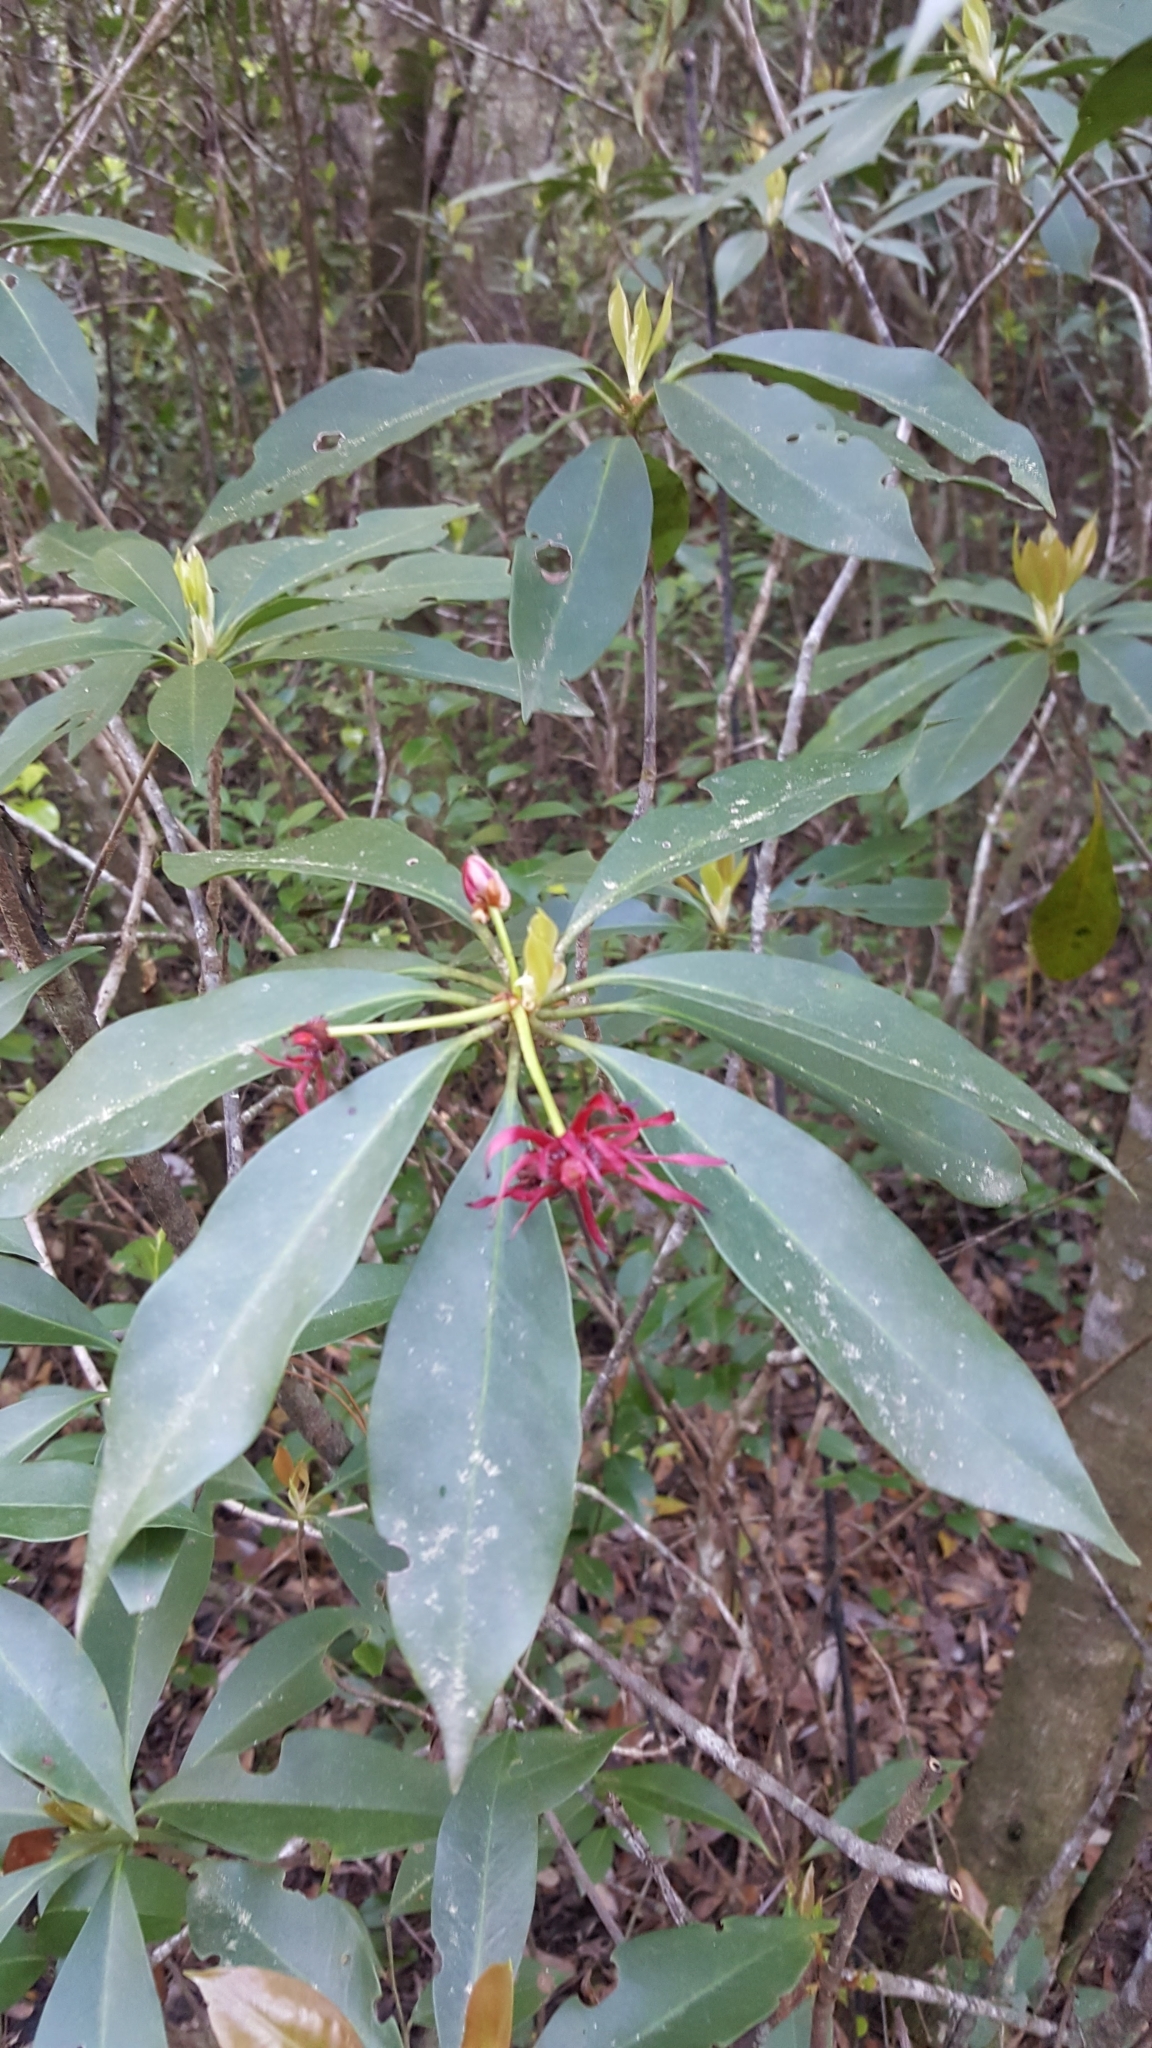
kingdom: Plantae
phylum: Tracheophyta
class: Magnoliopsida
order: Austrobaileyales
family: Schisandraceae
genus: Illicium
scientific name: Illicium floridanum
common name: Florida anisetree
